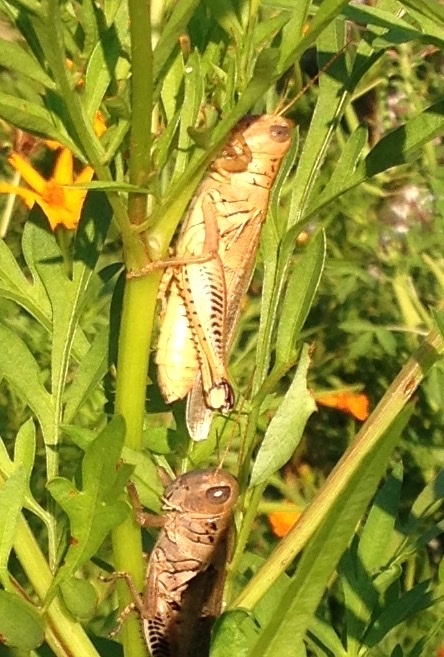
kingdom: Animalia
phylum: Arthropoda
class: Insecta
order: Orthoptera
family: Acrididae
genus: Melanoplus
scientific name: Melanoplus differentialis
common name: Differential grasshopper
